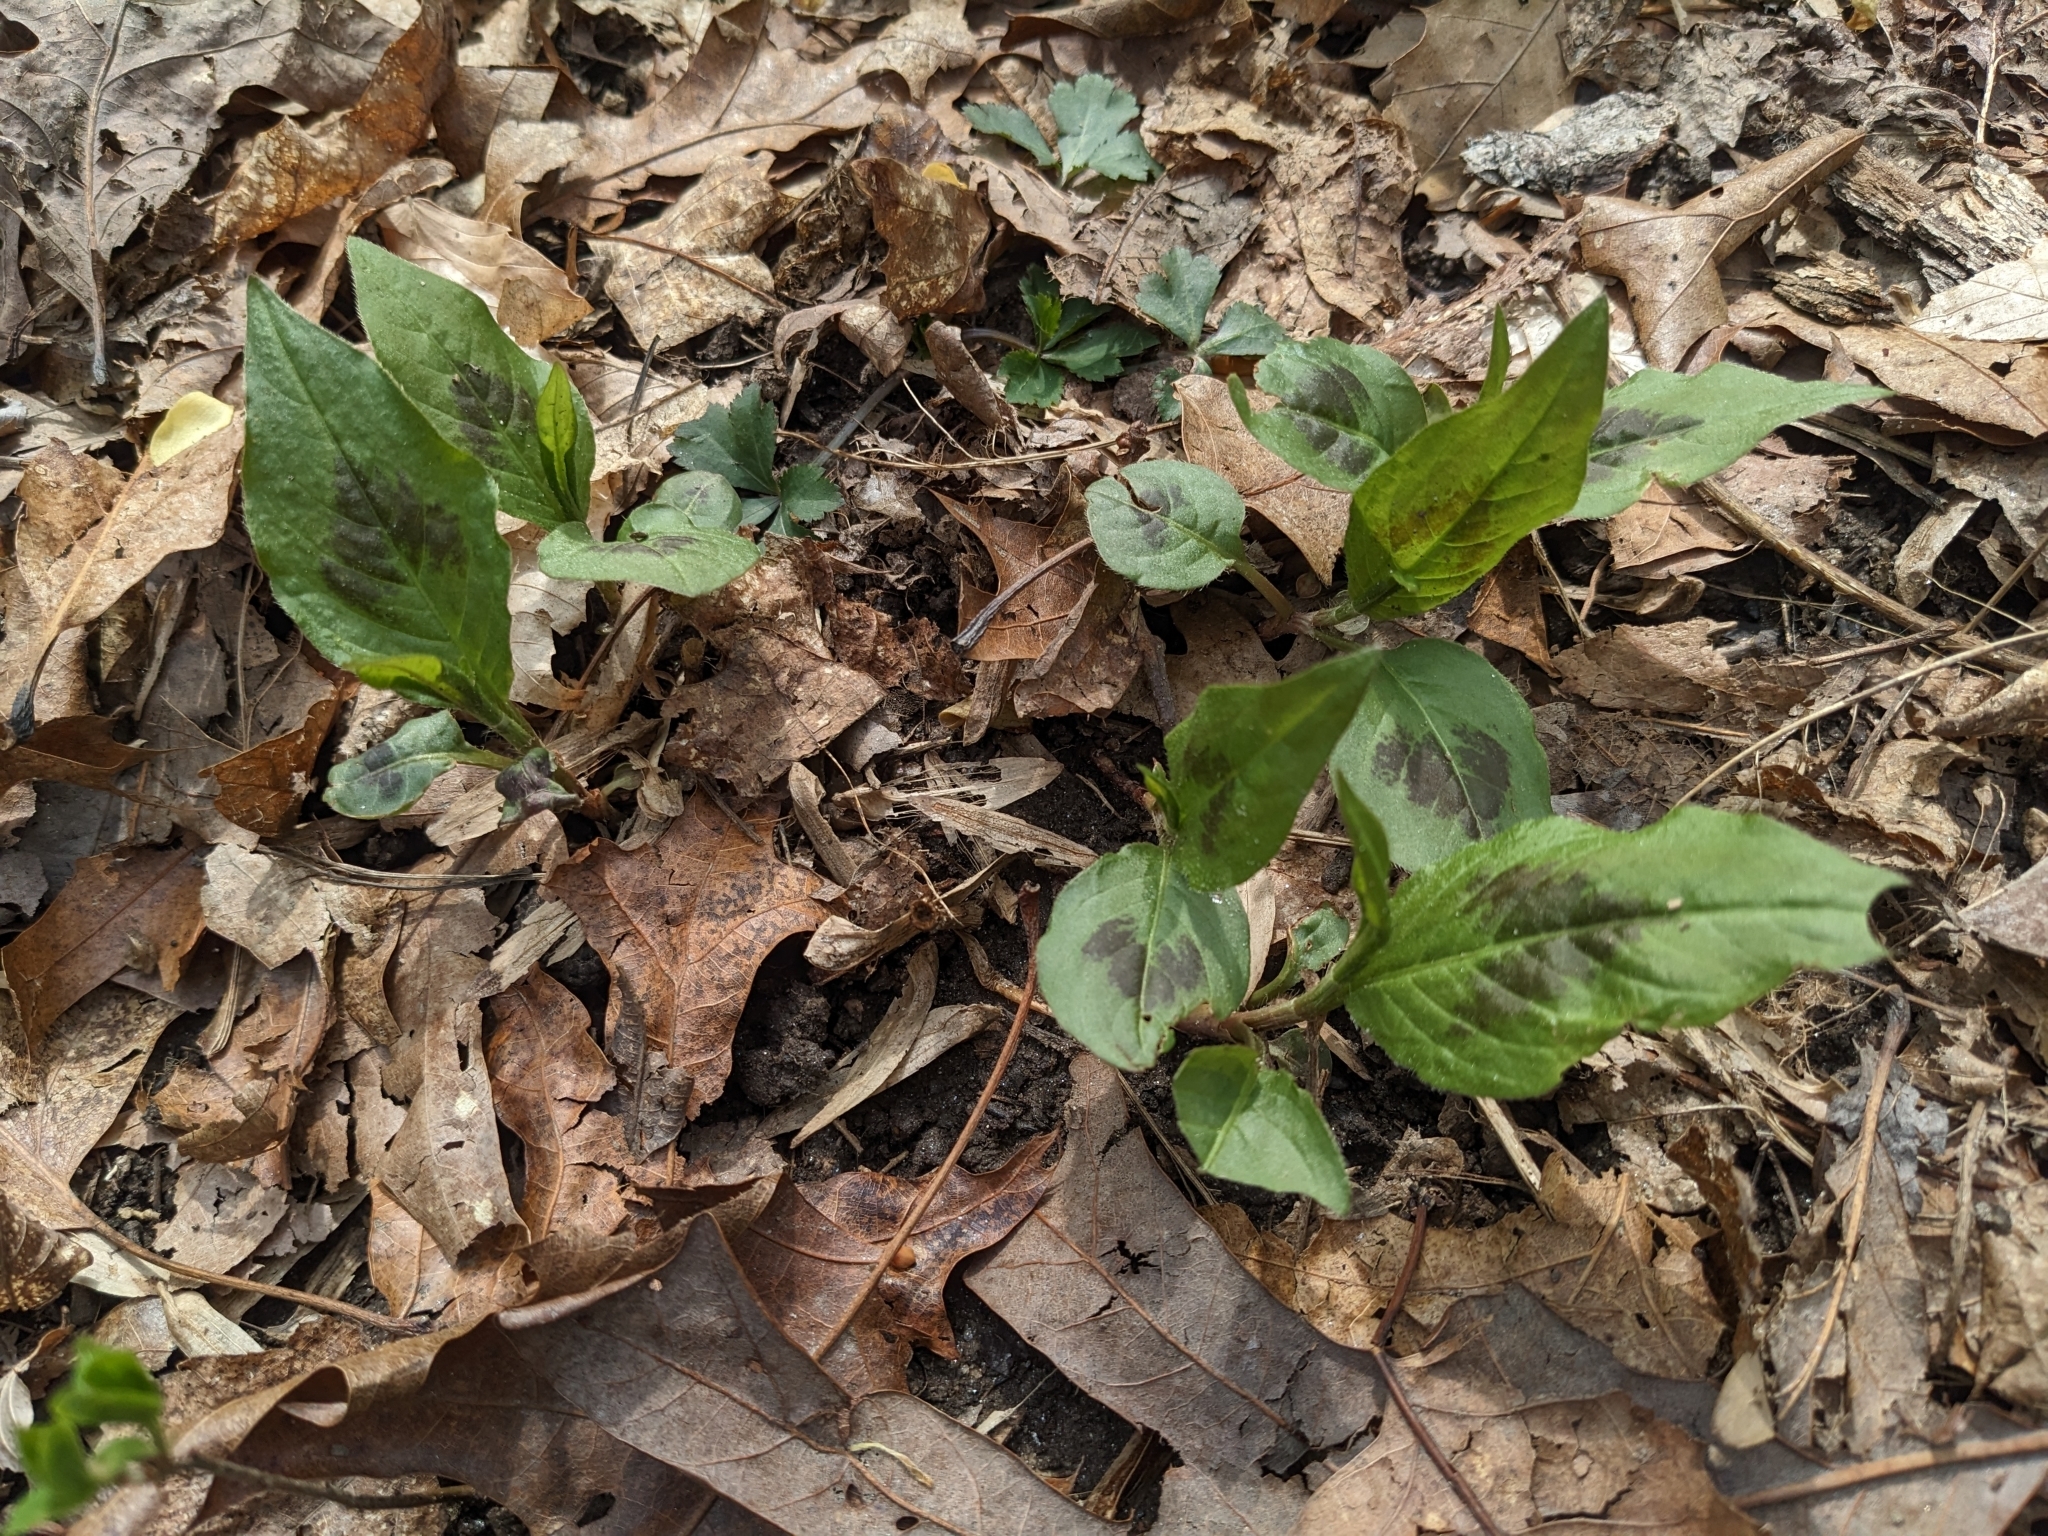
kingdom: Plantae
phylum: Tracheophyta
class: Magnoliopsida
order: Caryophyllales
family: Polygonaceae
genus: Persicaria
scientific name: Persicaria virginiana
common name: Jumpseed
